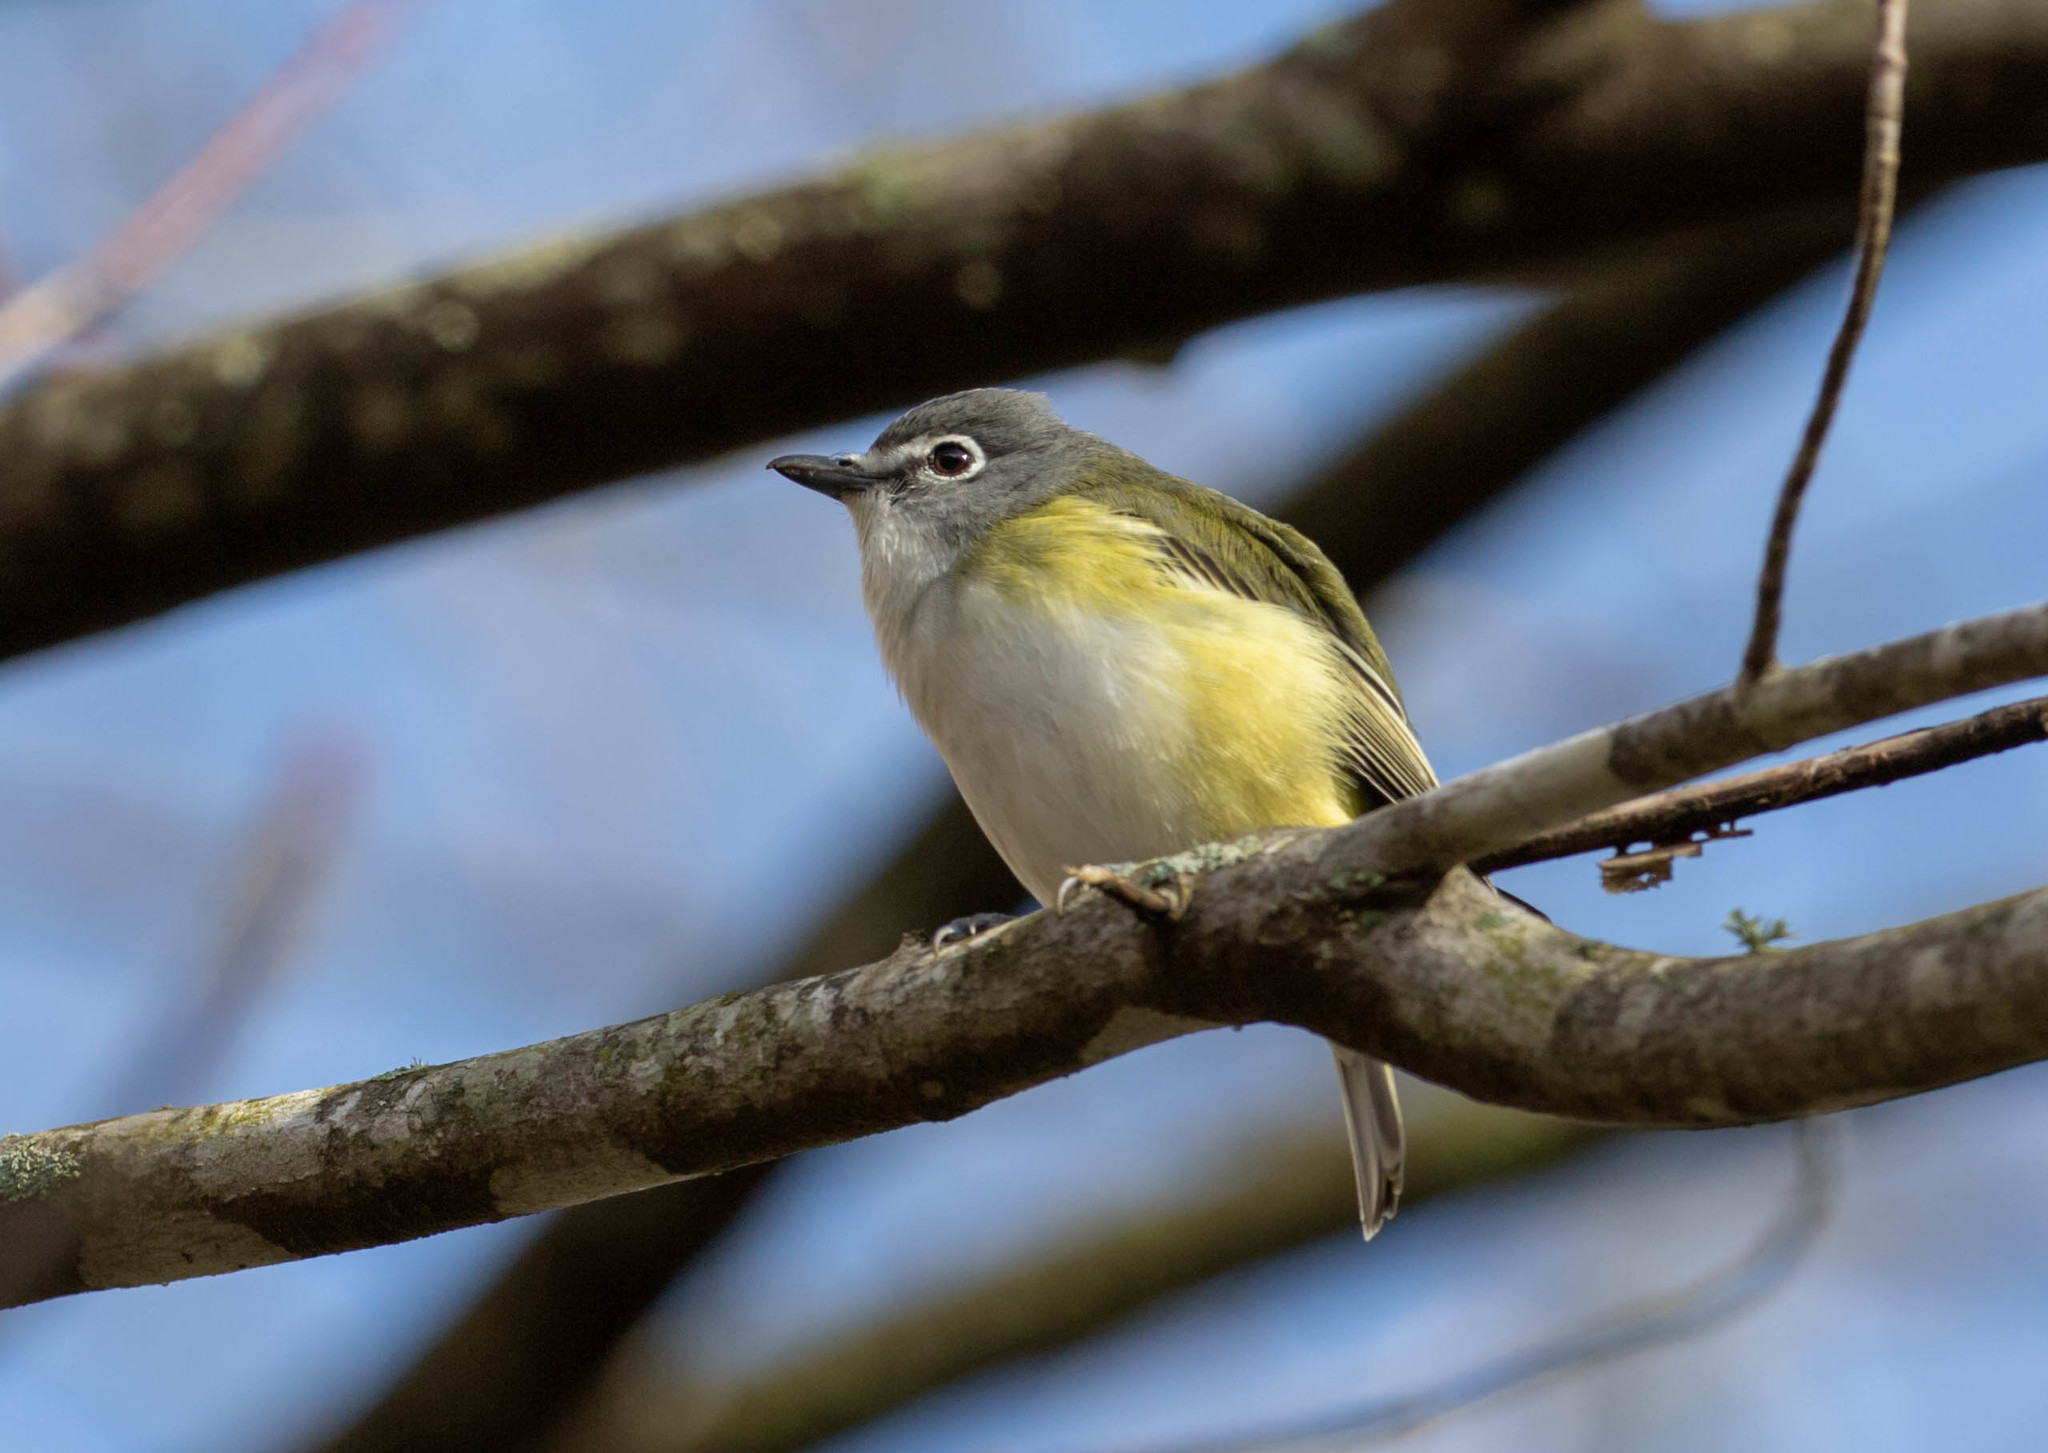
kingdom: Animalia
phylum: Chordata
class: Aves
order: Passeriformes
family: Vireonidae
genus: Vireo
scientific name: Vireo solitarius
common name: Blue-headed vireo
